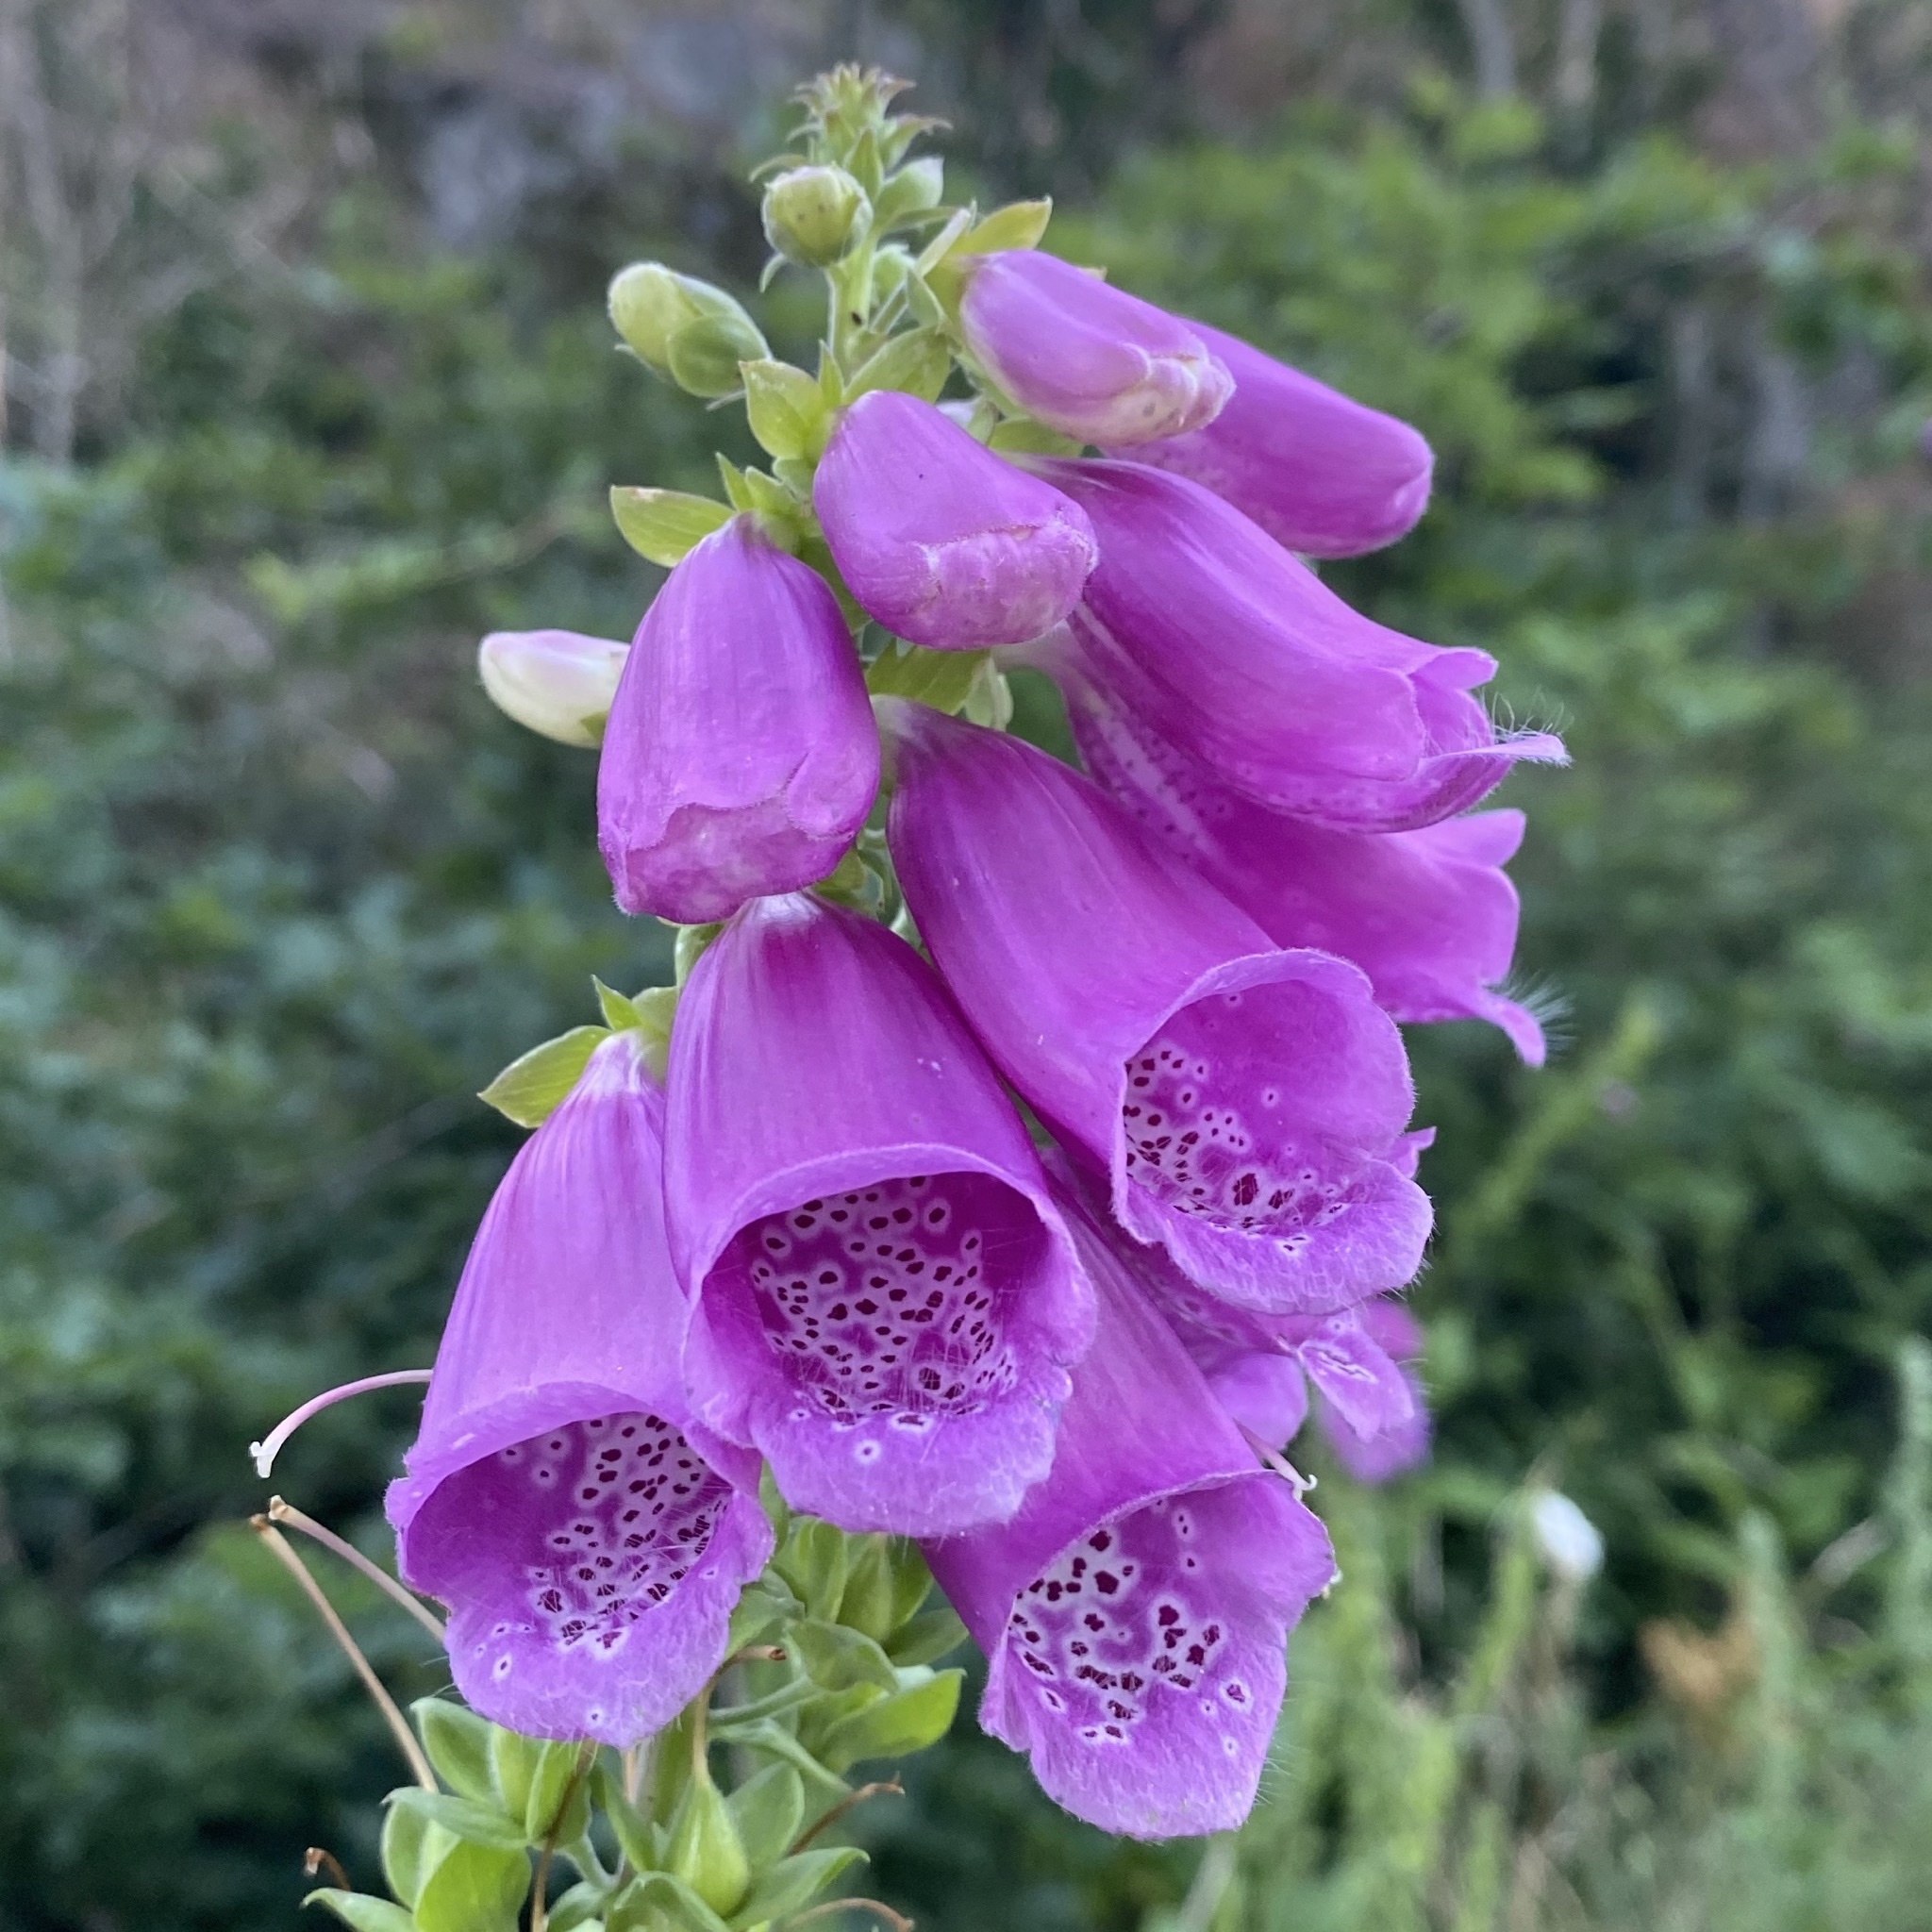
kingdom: Plantae
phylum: Tracheophyta
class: Magnoliopsida
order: Lamiales
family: Plantaginaceae
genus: Digitalis
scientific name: Digitalis purpurea
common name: Foxglove
